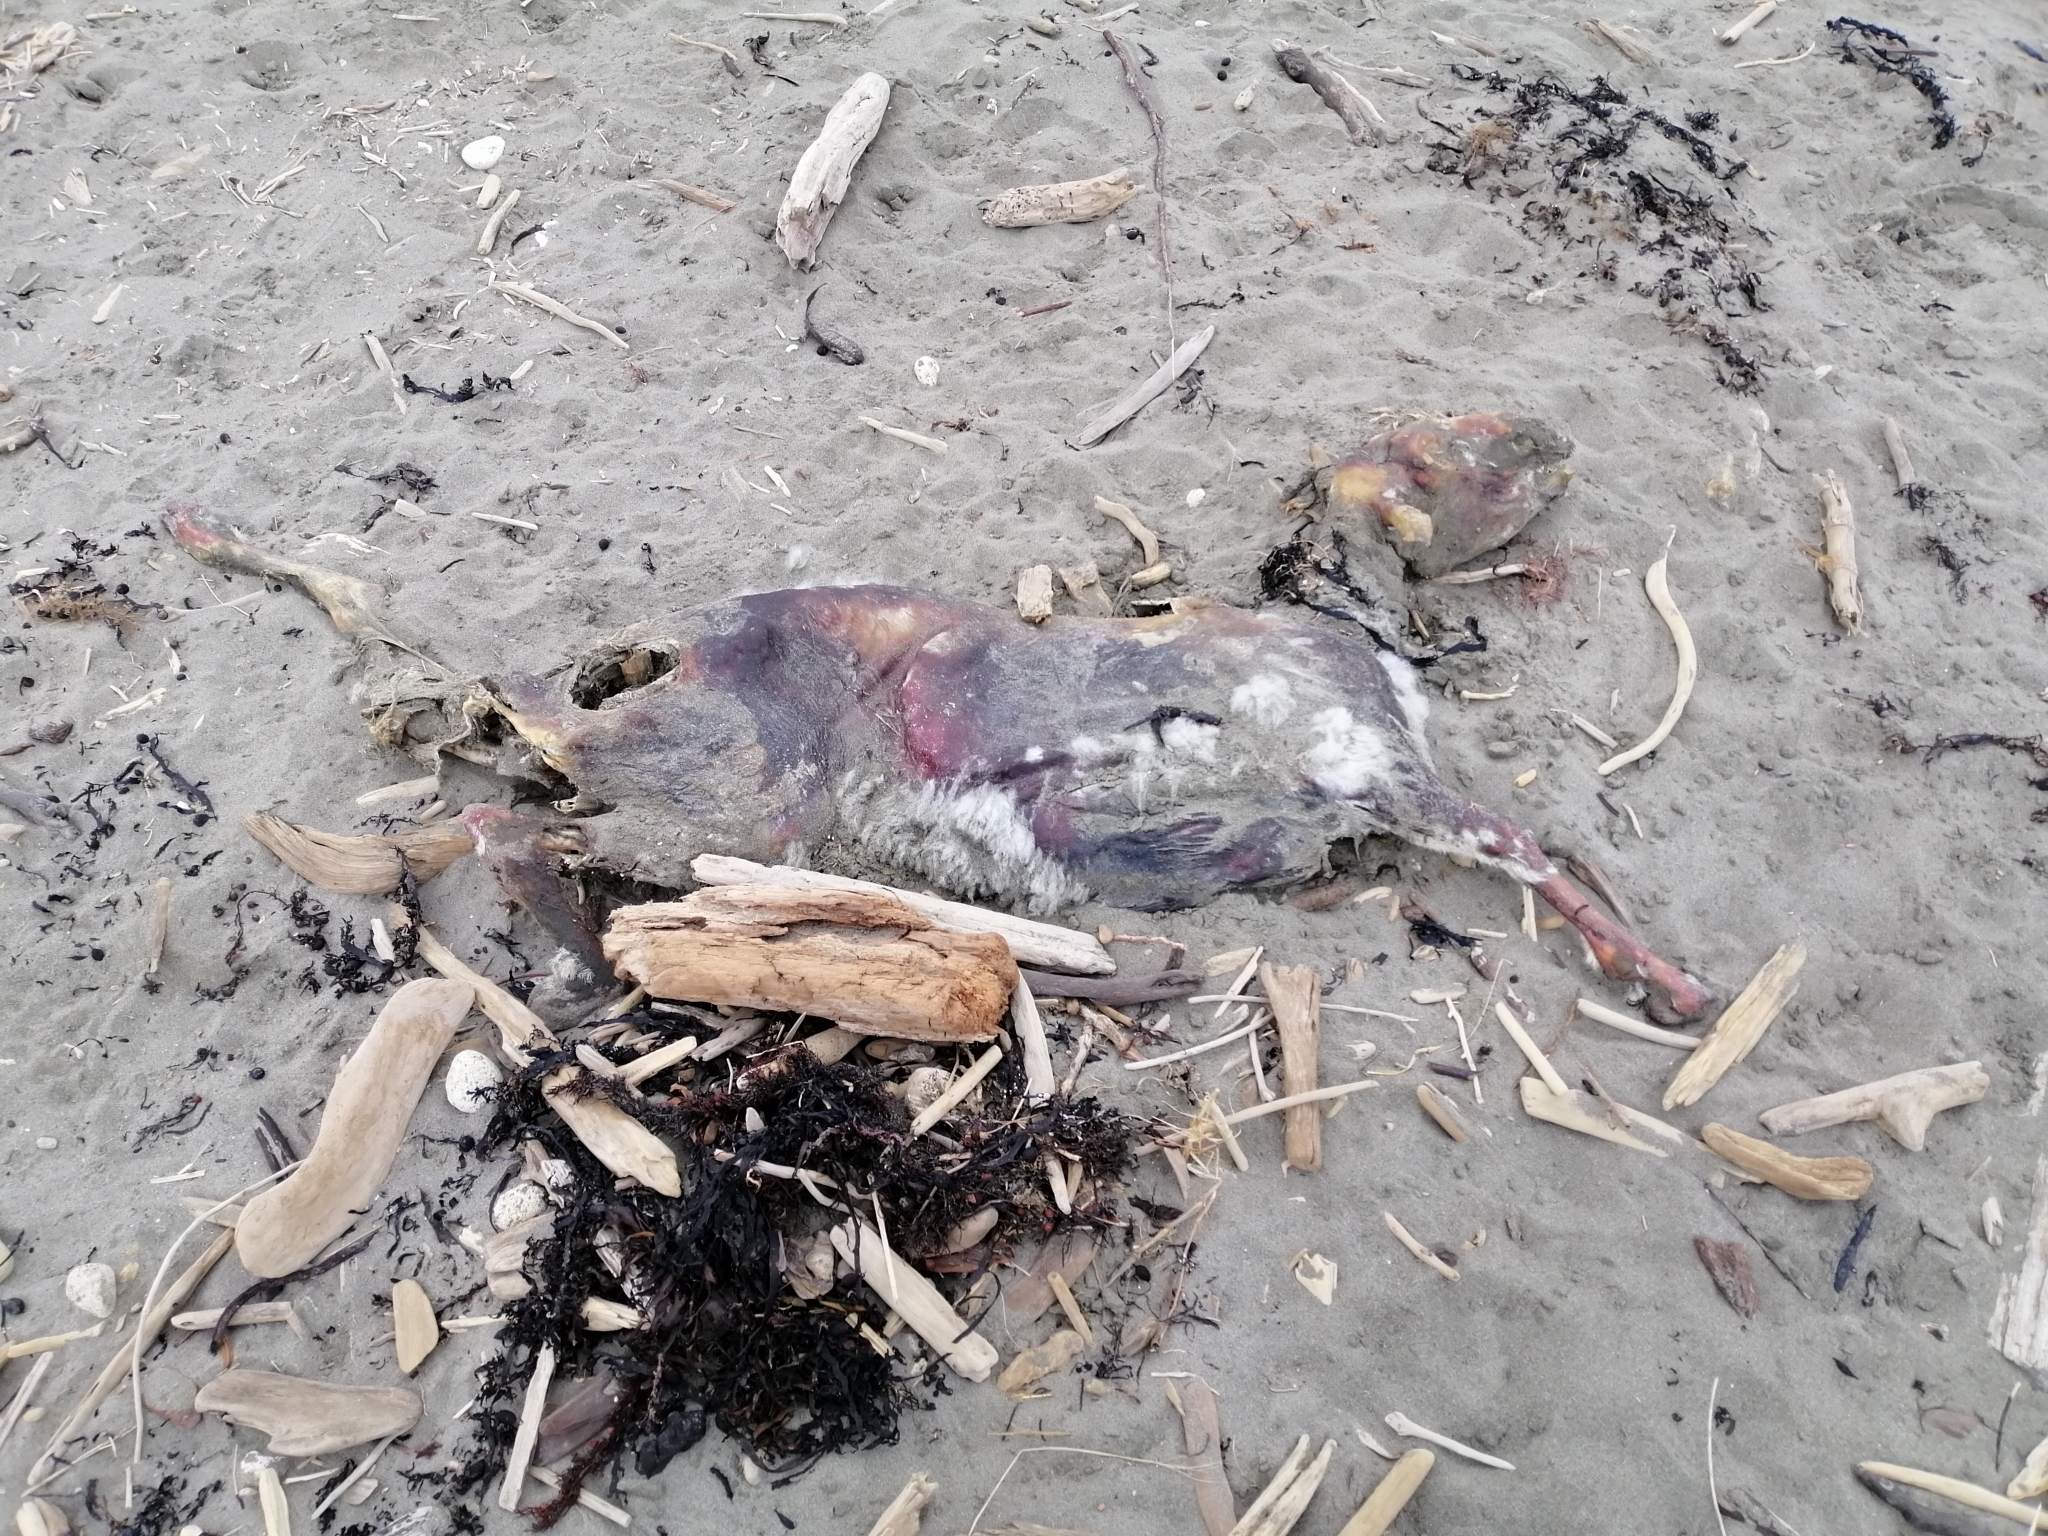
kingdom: Animalia
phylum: Chordata
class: Mammalia
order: Artiodactyla
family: Bovidae
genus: Ovis
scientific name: Ovis aries
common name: Domestic sheep
